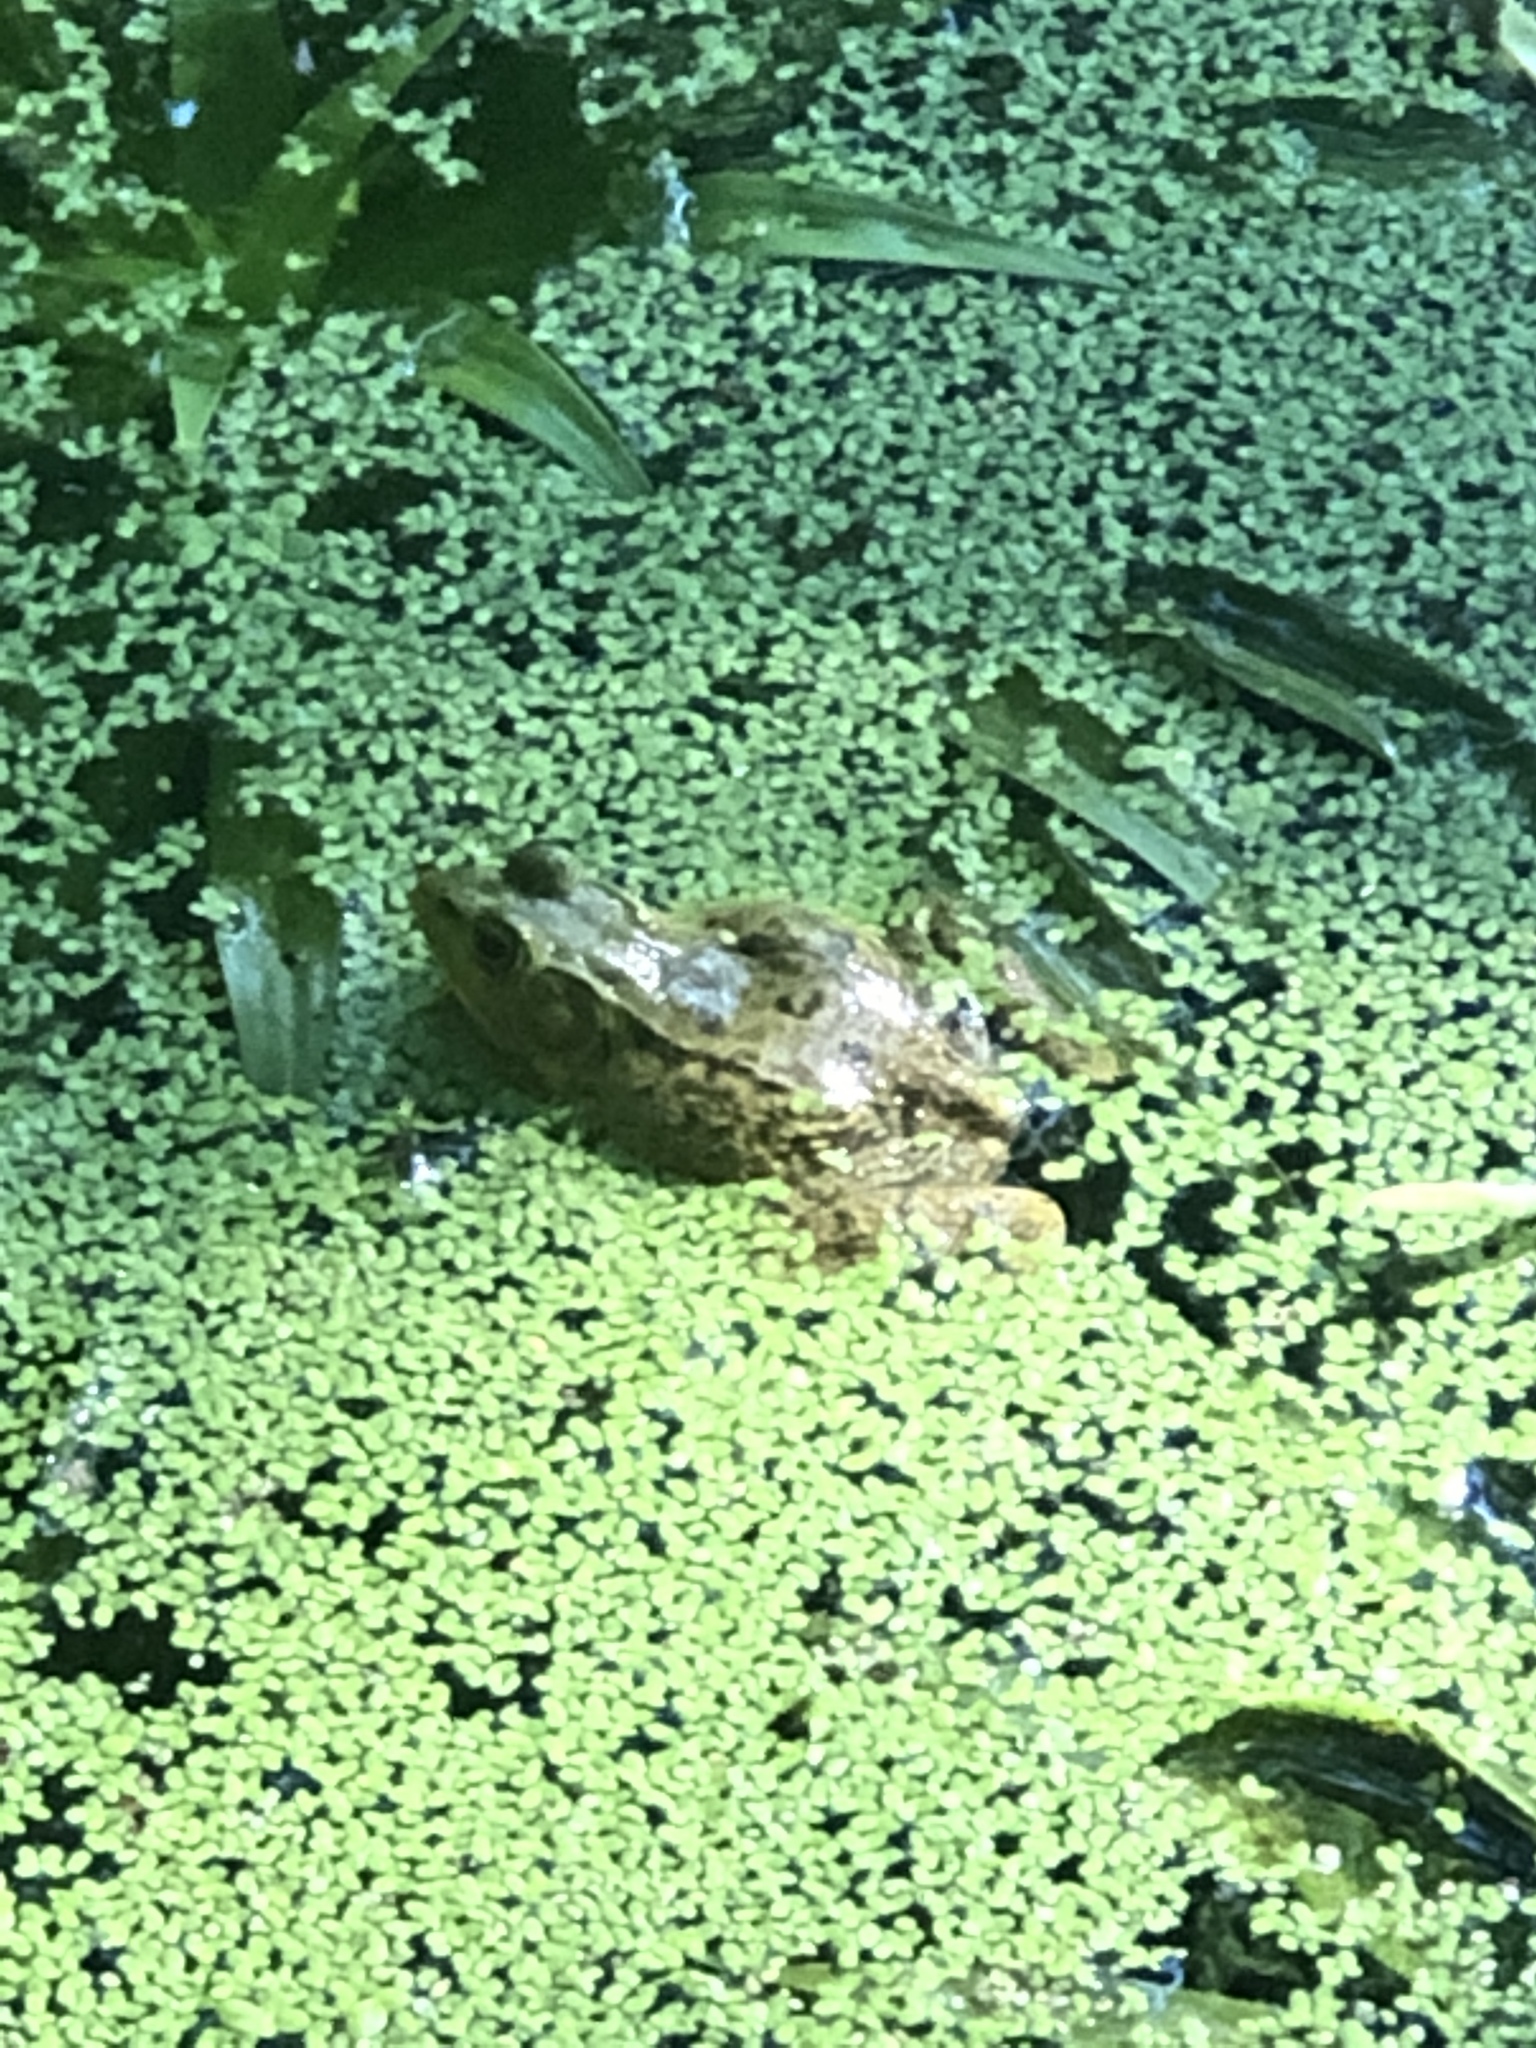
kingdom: Animalia
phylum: Chordata
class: Amphibia
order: Anura
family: Ranidae
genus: Lithobates
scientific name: Lithobates clamitans
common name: Green frog
